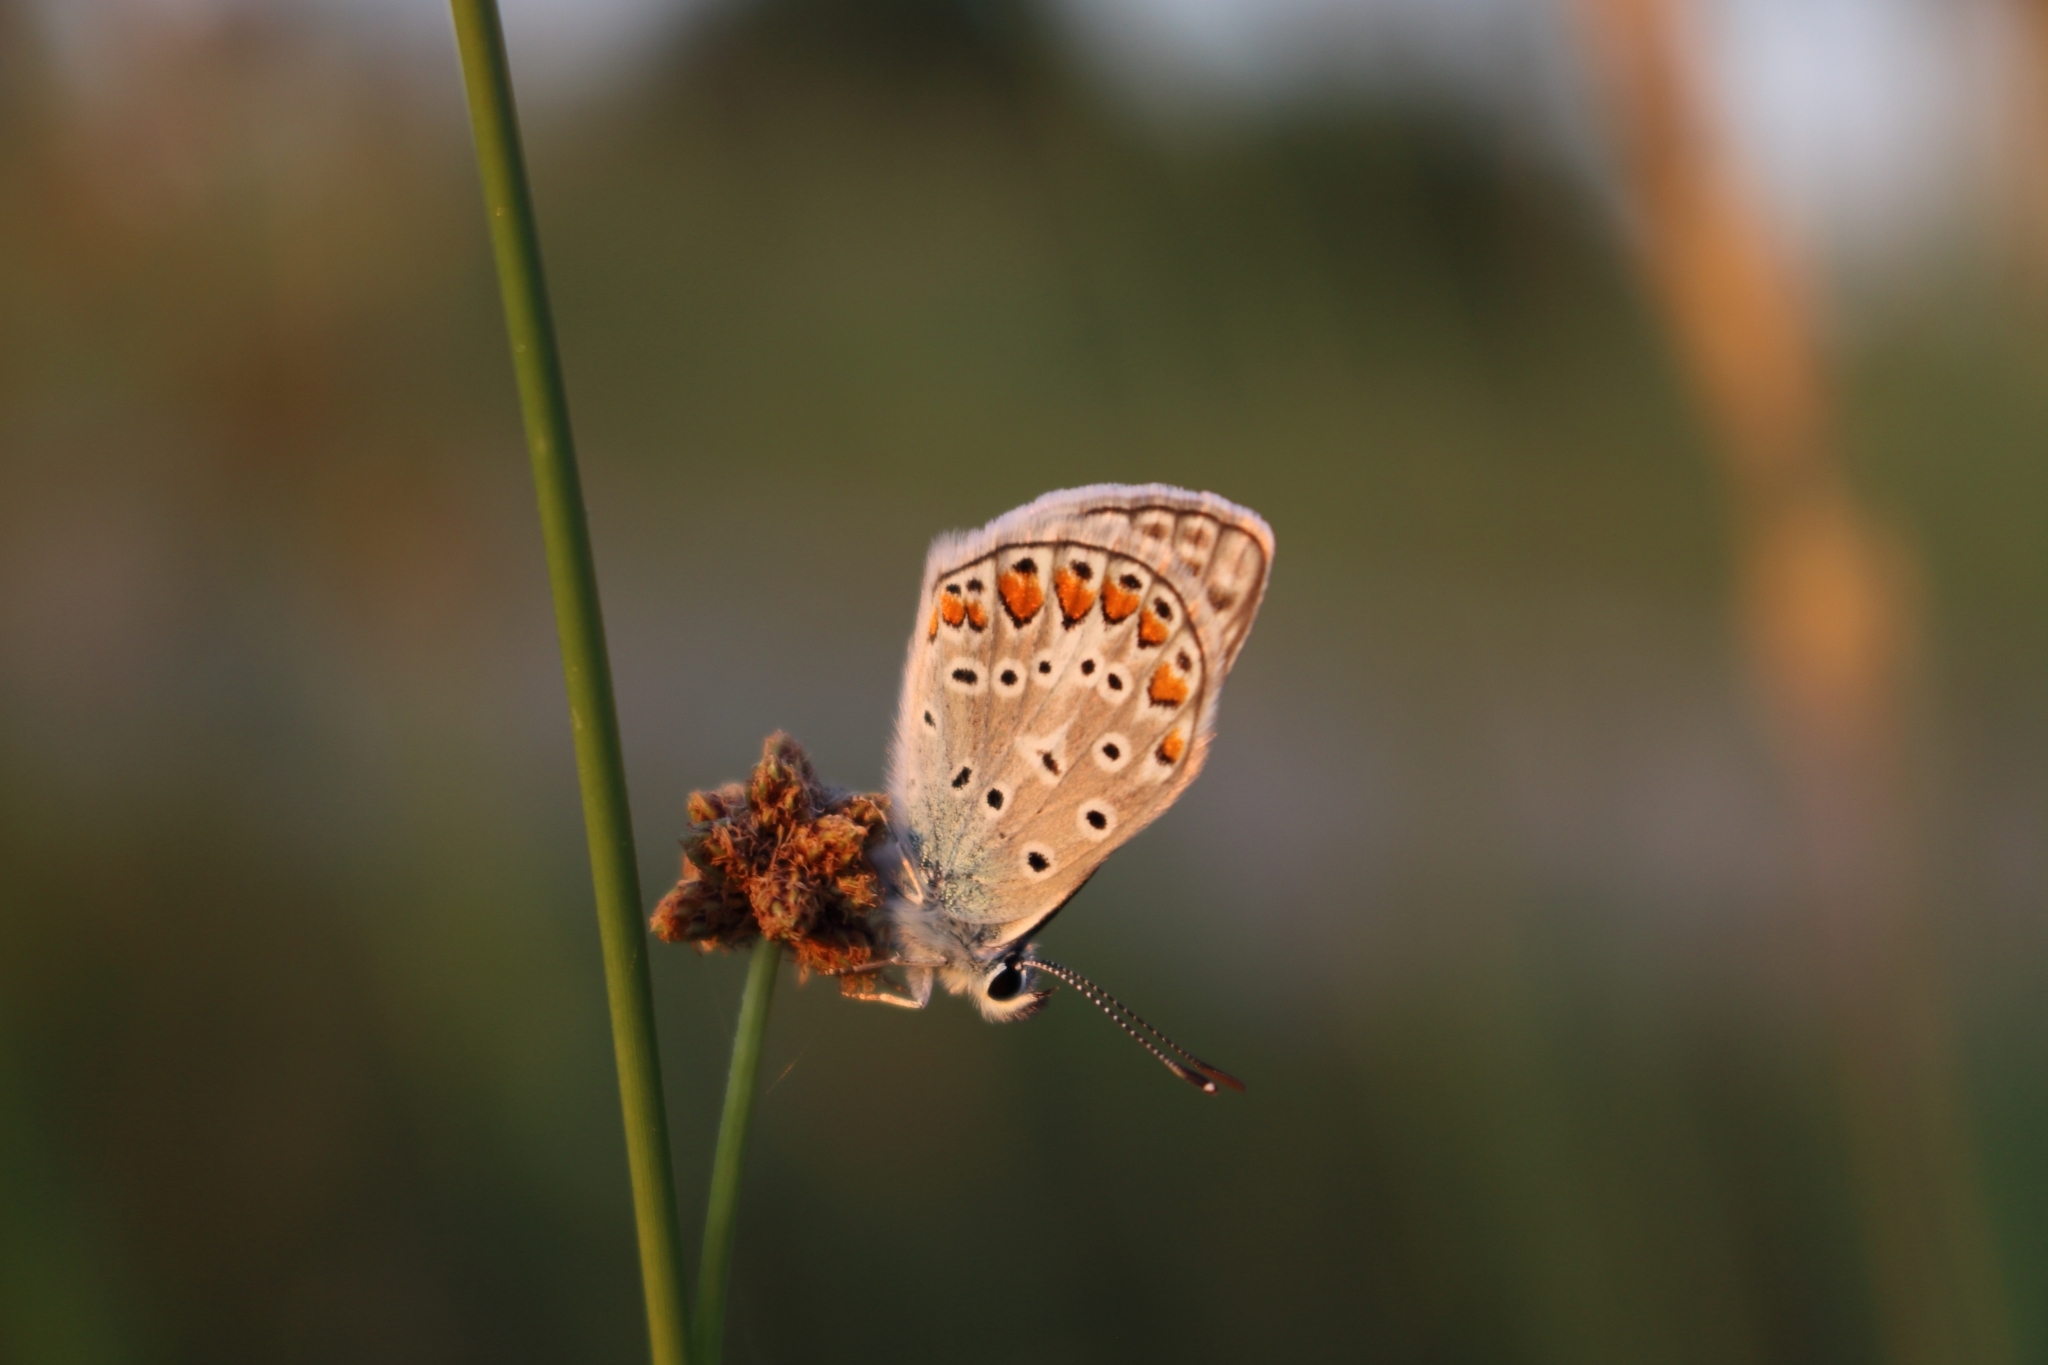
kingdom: Animalia
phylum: Arthropoda
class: Insecta
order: Lepidoptera
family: Lycaenidae
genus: Polyommatus
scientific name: Polyommatus icarus
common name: Common blue
